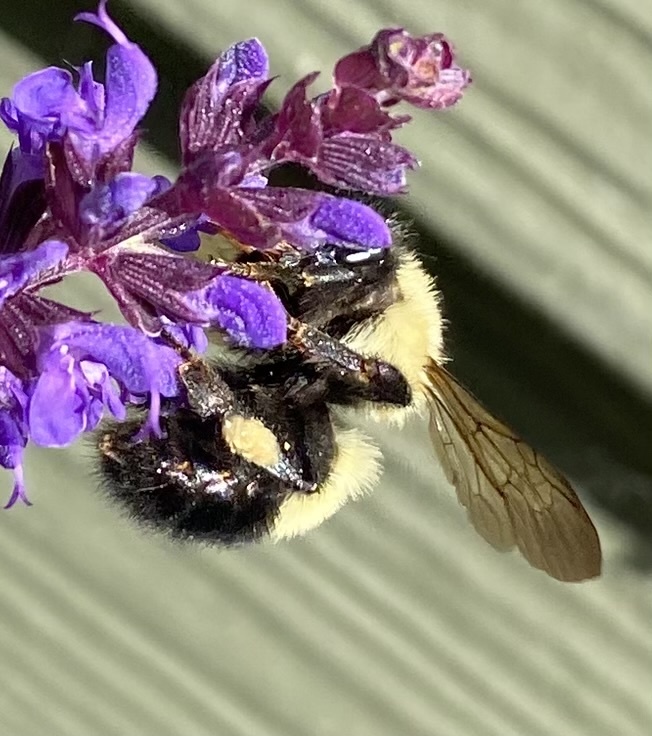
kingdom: Animalia
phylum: Arthropoda
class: Insecta
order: Hymenoptera
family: Apidae
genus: Bombus
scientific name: Bombus vagans
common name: Half-black bumble bee
